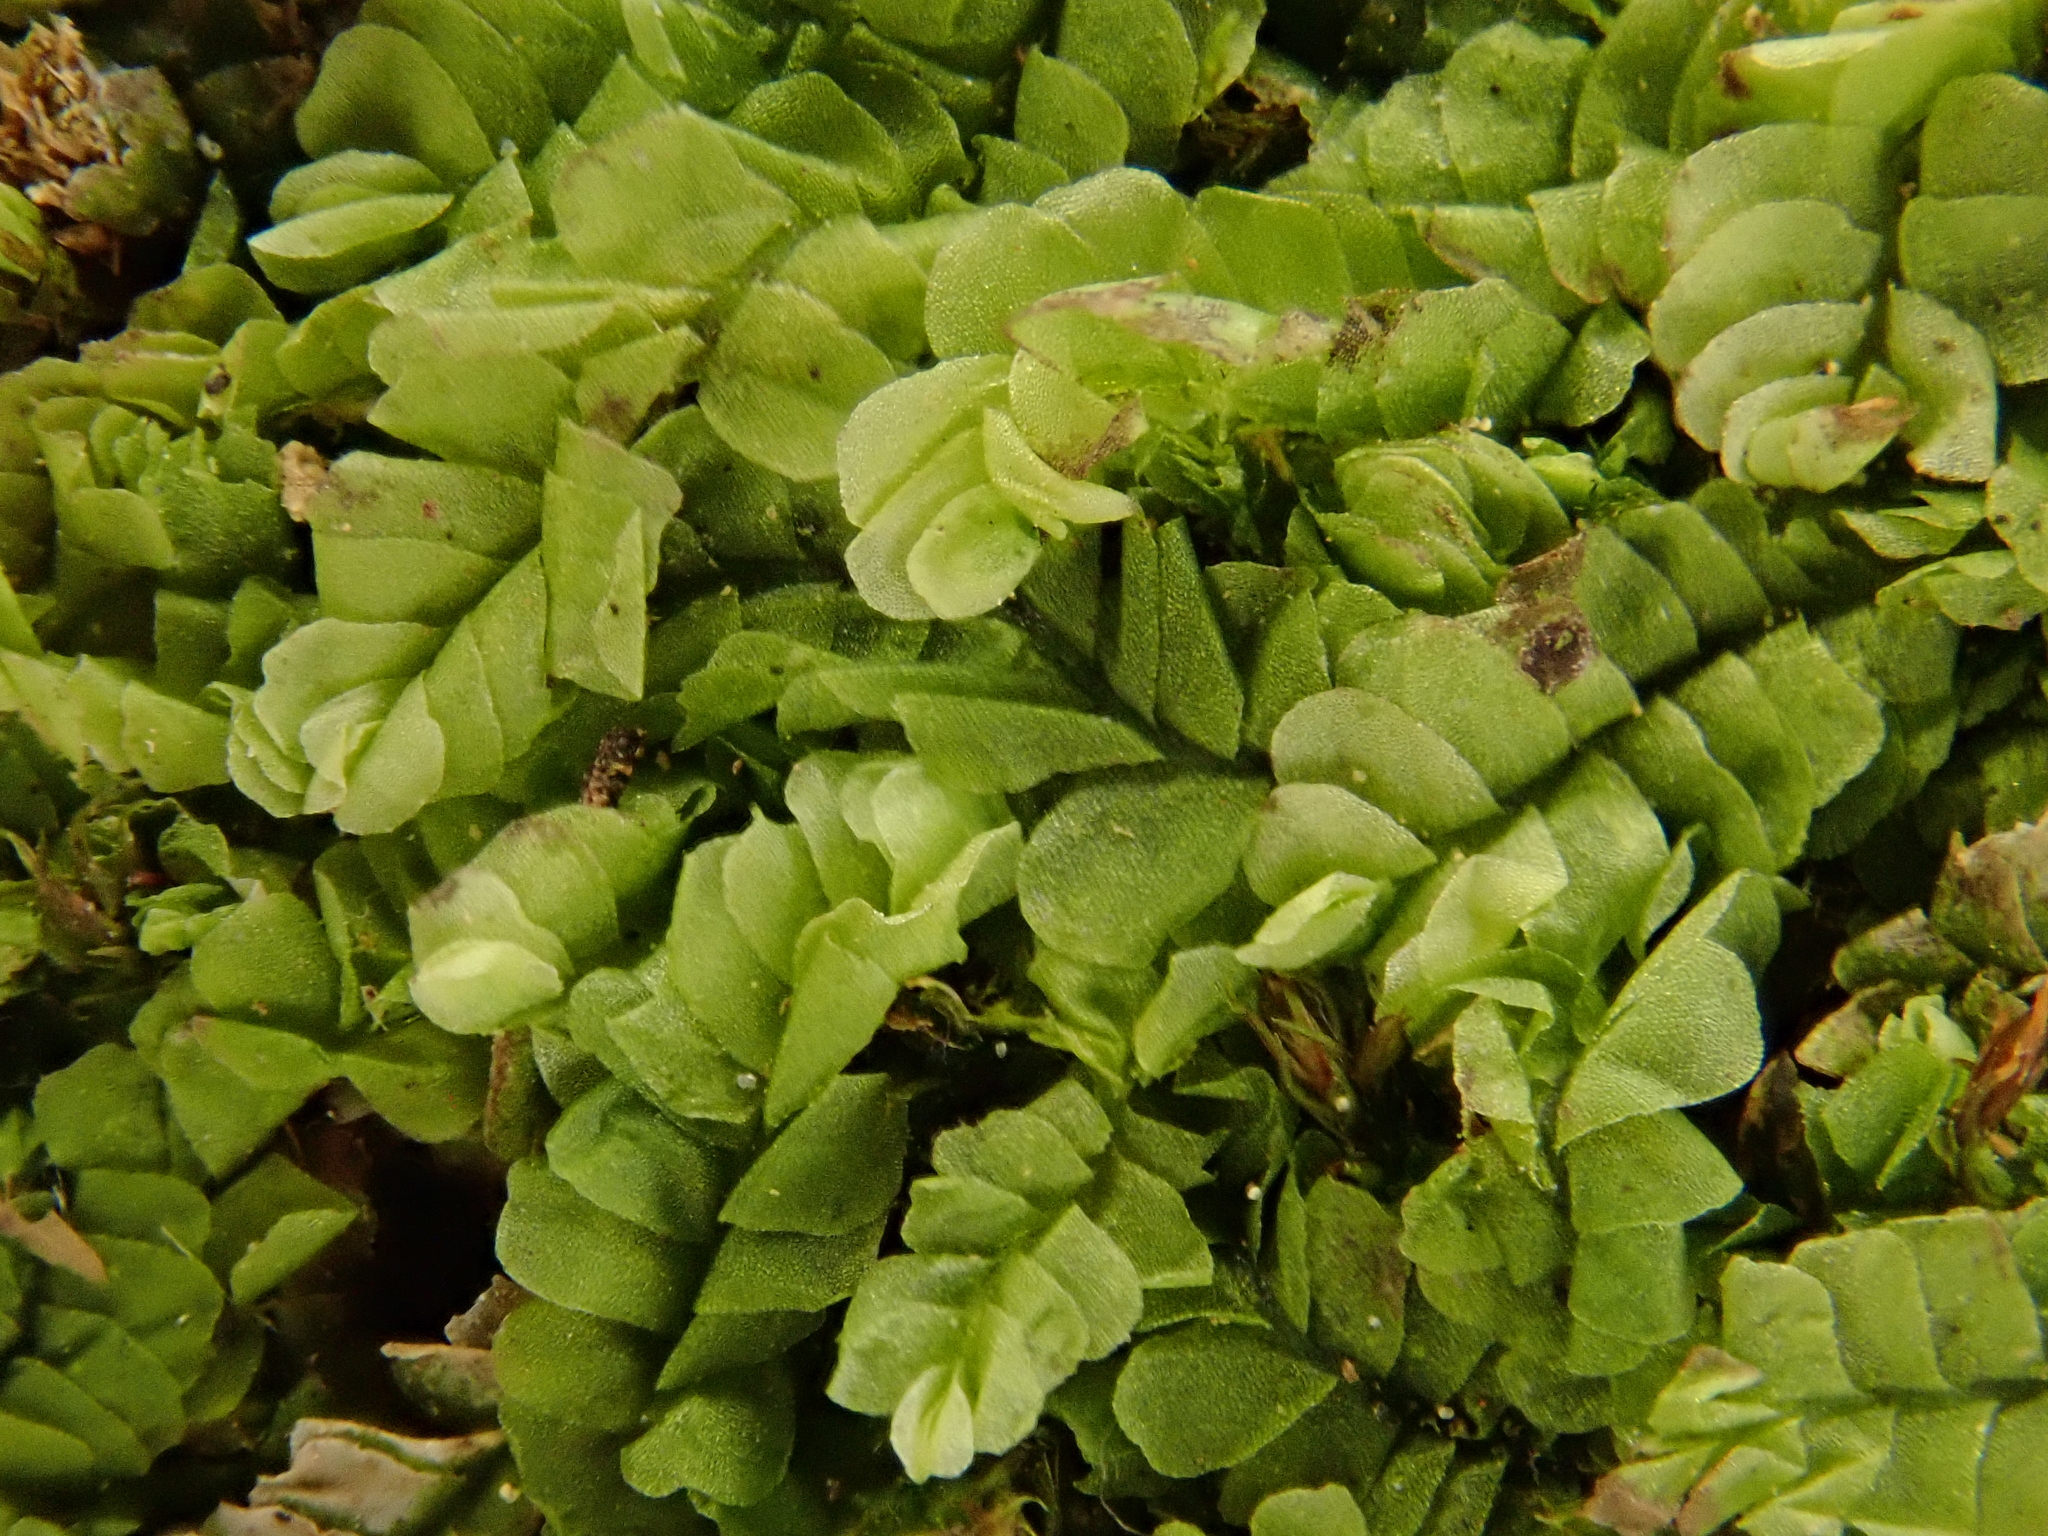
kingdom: Plantae
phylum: Marchantiophyta
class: Jungermanniopsida
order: Jungermanniales
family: Lophocoleaceae
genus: Chiloscyphus
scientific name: Chiloscyphus pallescens
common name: St winifrid's other moss
